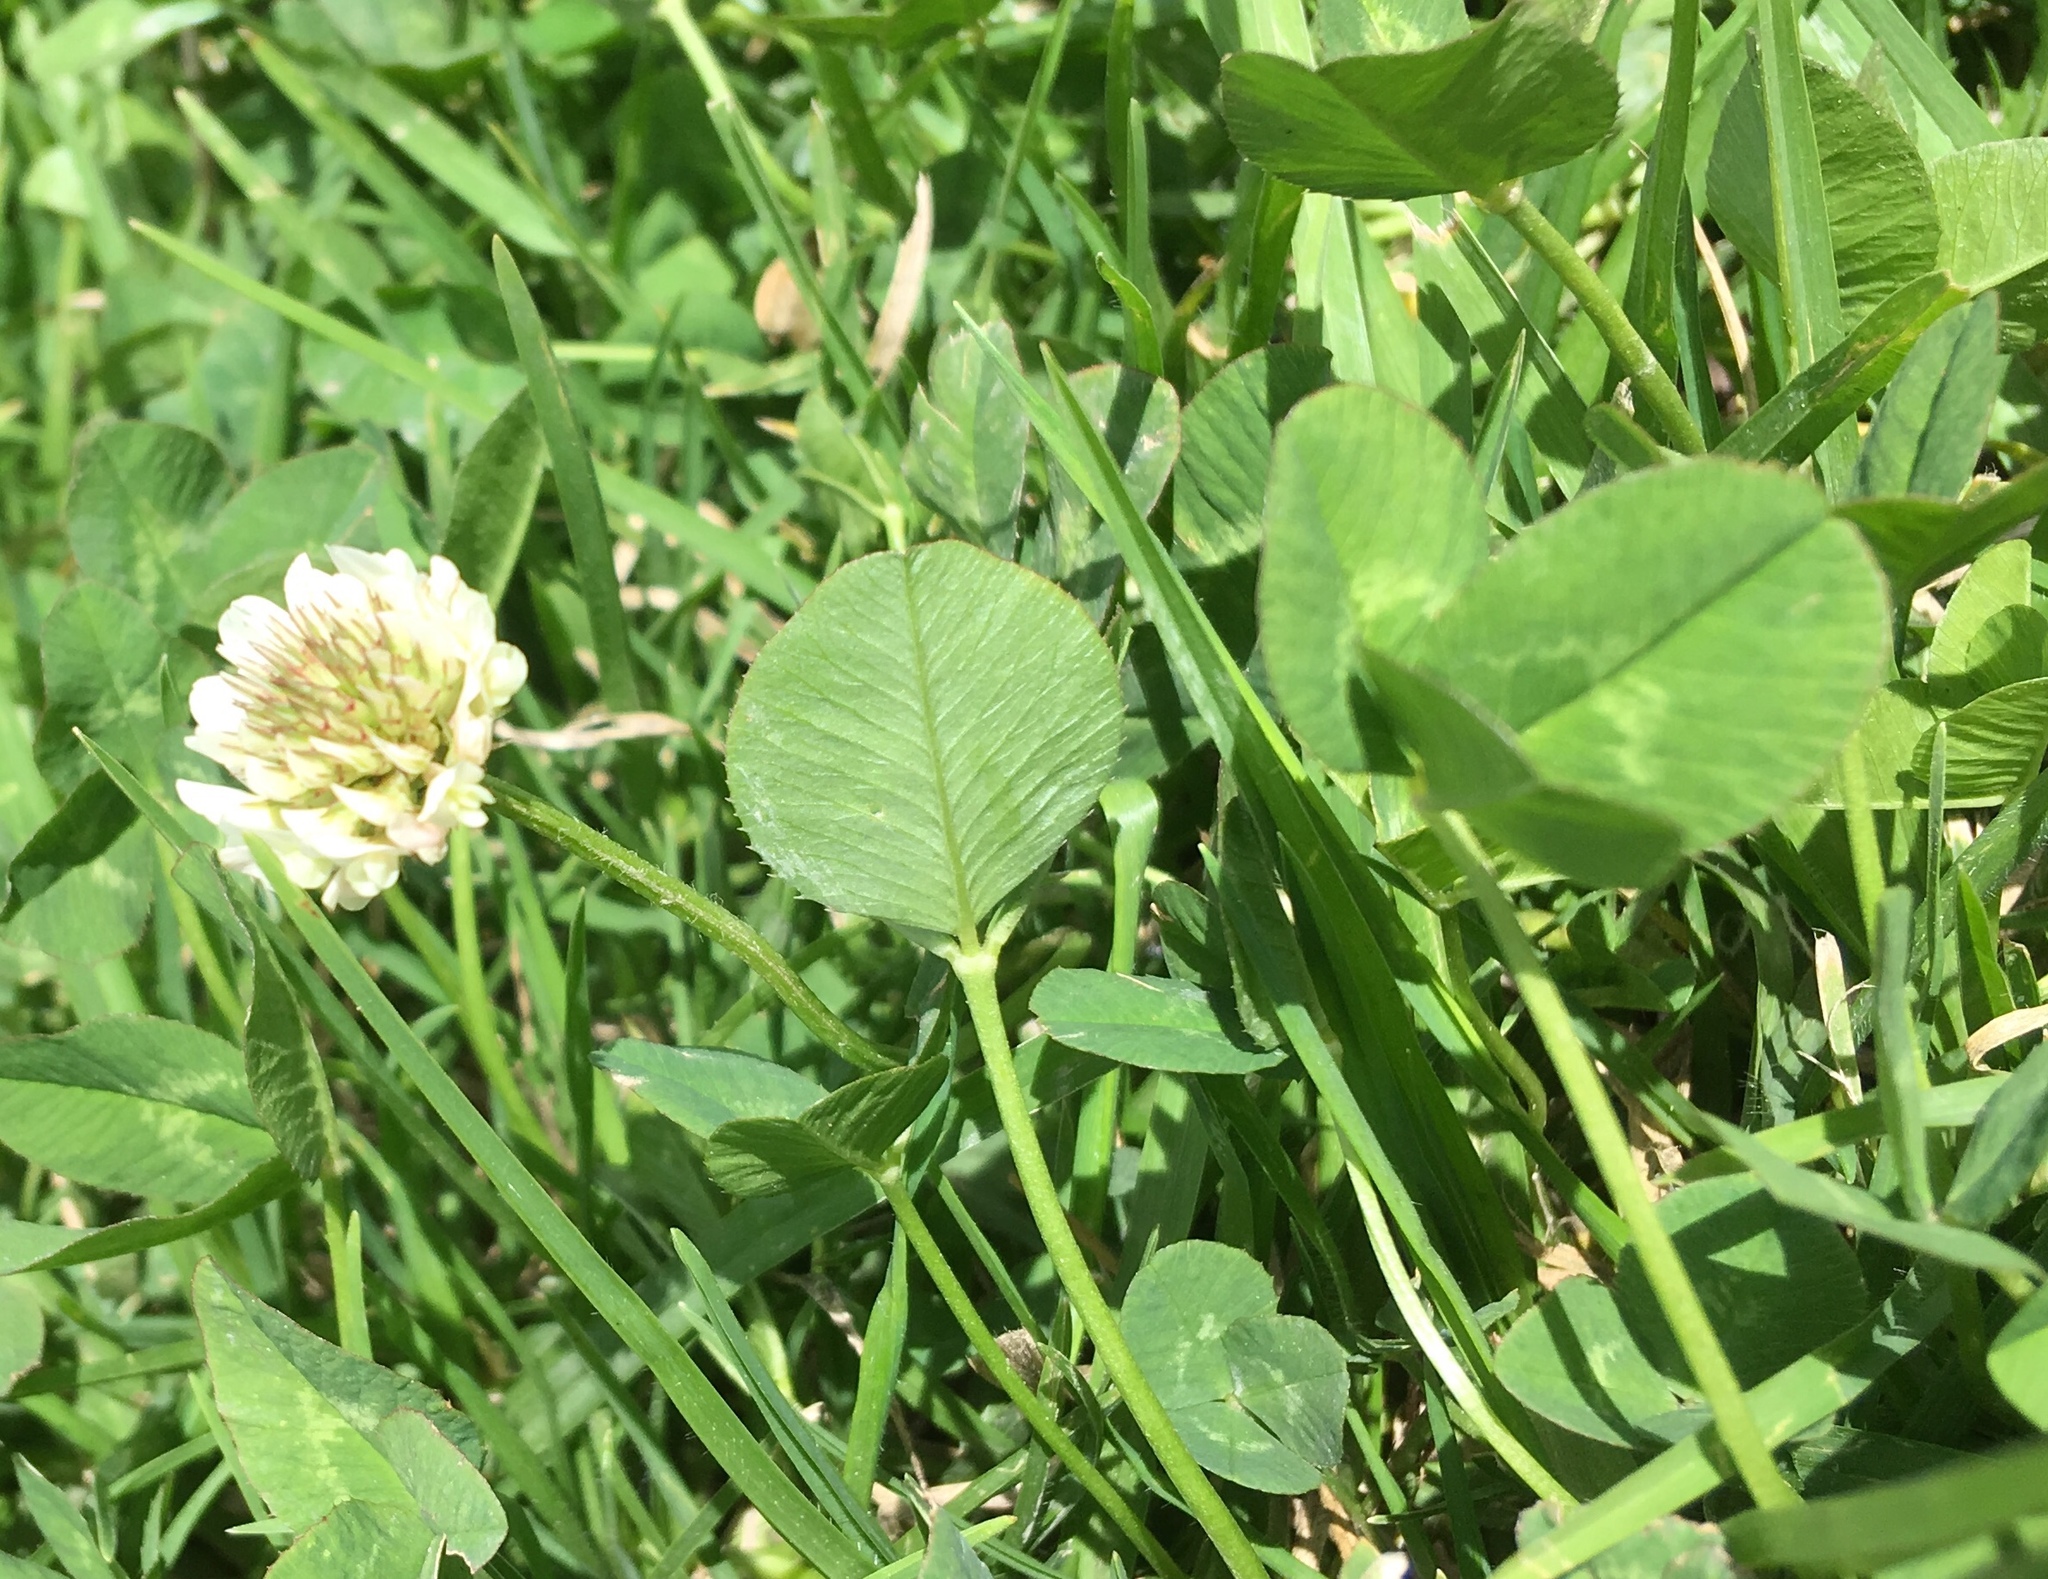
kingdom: Plantae
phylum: Tracheophyta
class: Magnoliopsida
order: Fabales
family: Fabaceae
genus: Trifolium
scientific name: Trifolium repens
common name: White clover
